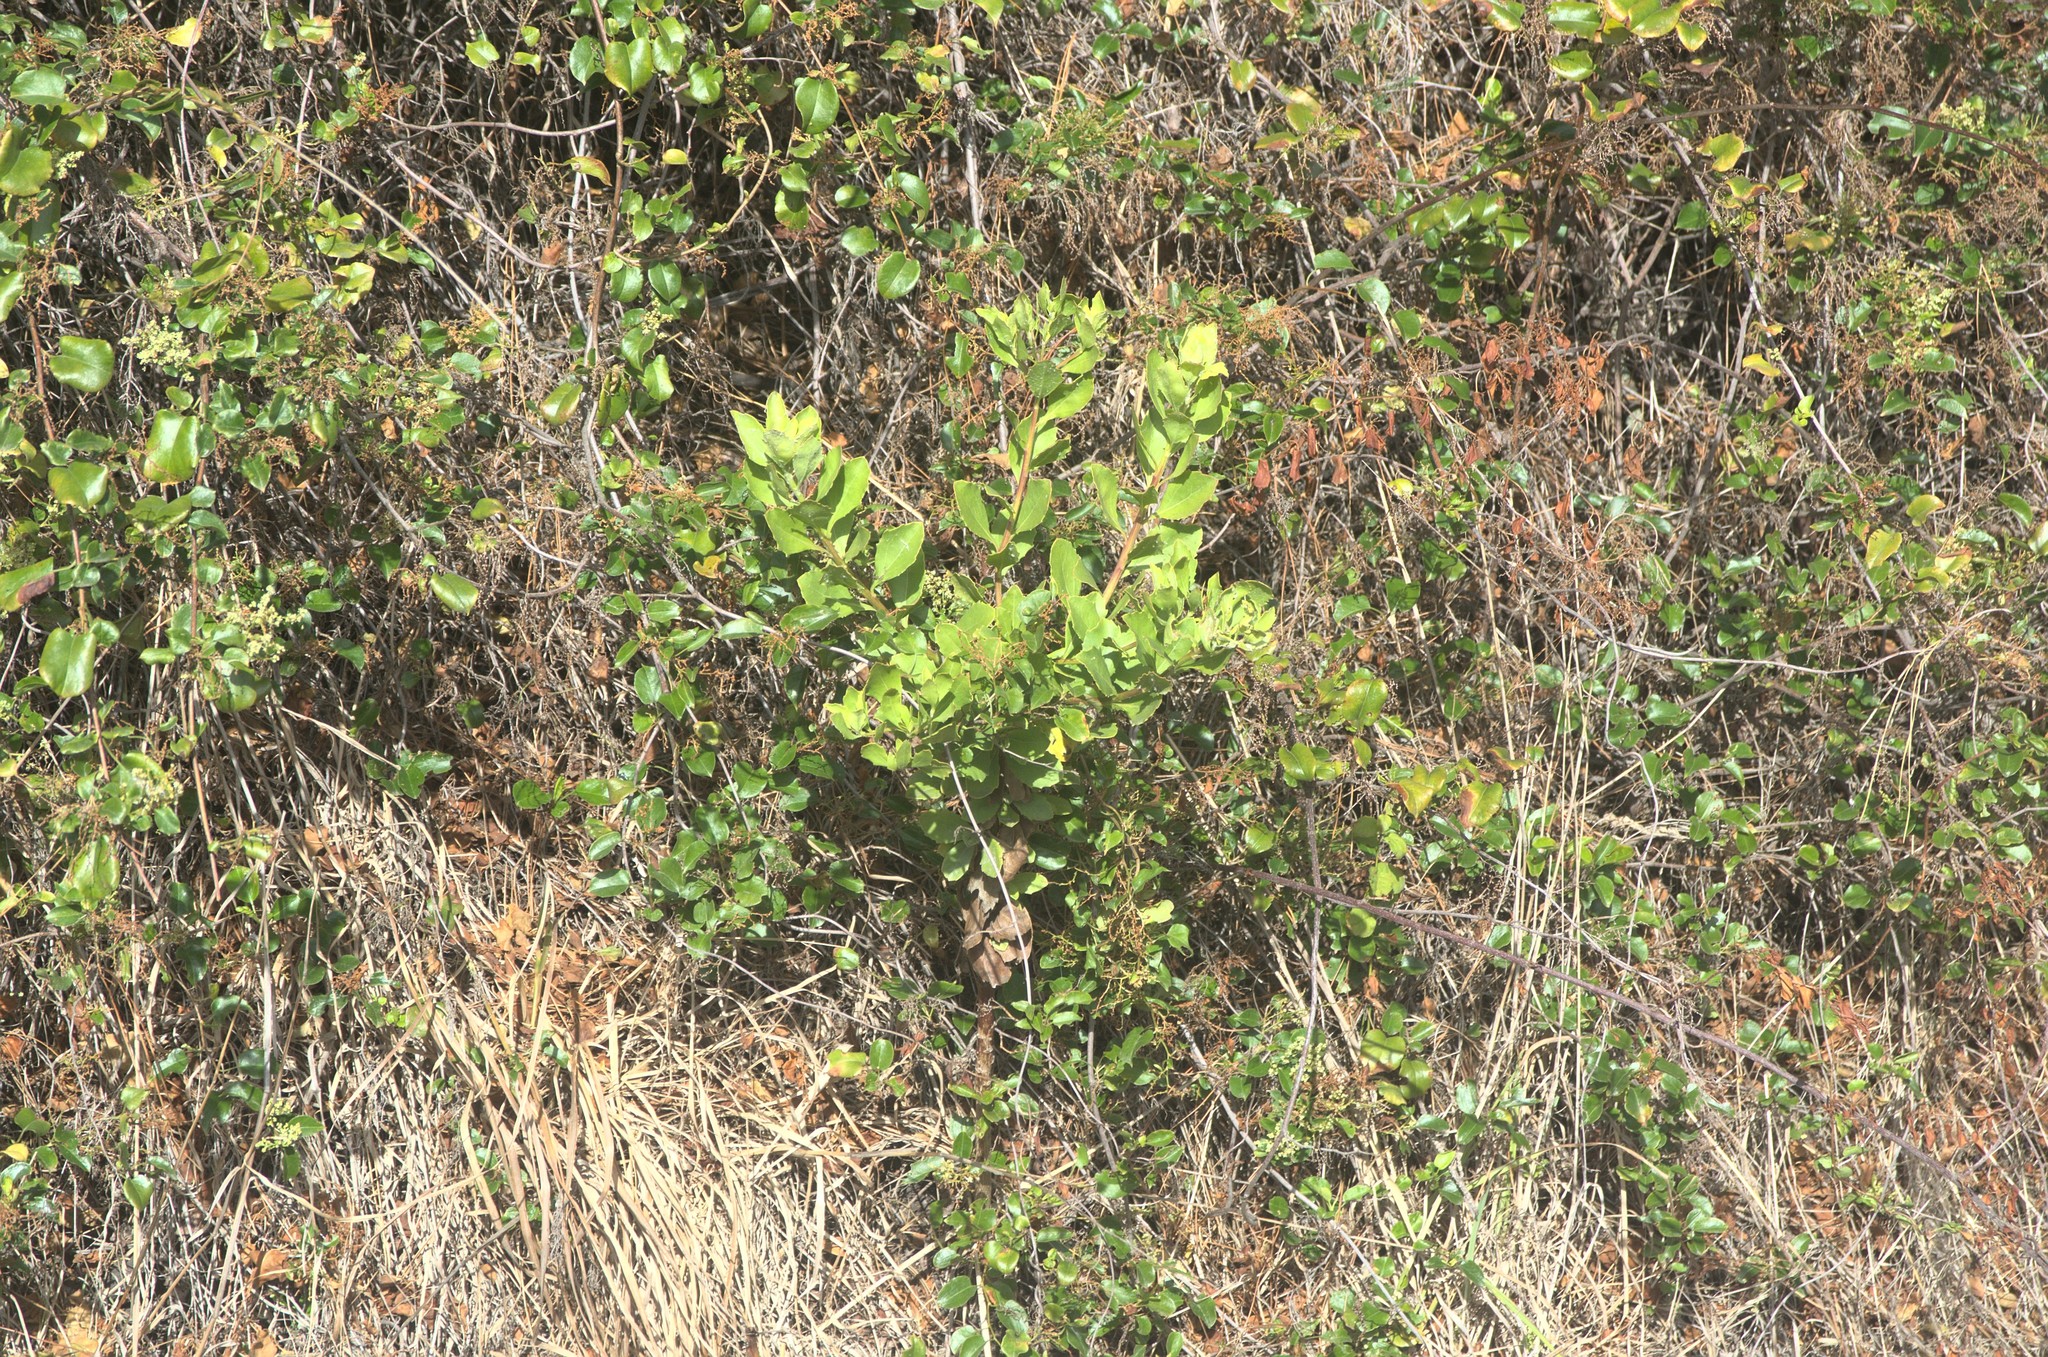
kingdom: Plantae
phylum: Tracheophyta
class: Magnoliopsida
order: Asterales
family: Asteraceae
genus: Osteospermum
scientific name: Osteospermum moniliferum
